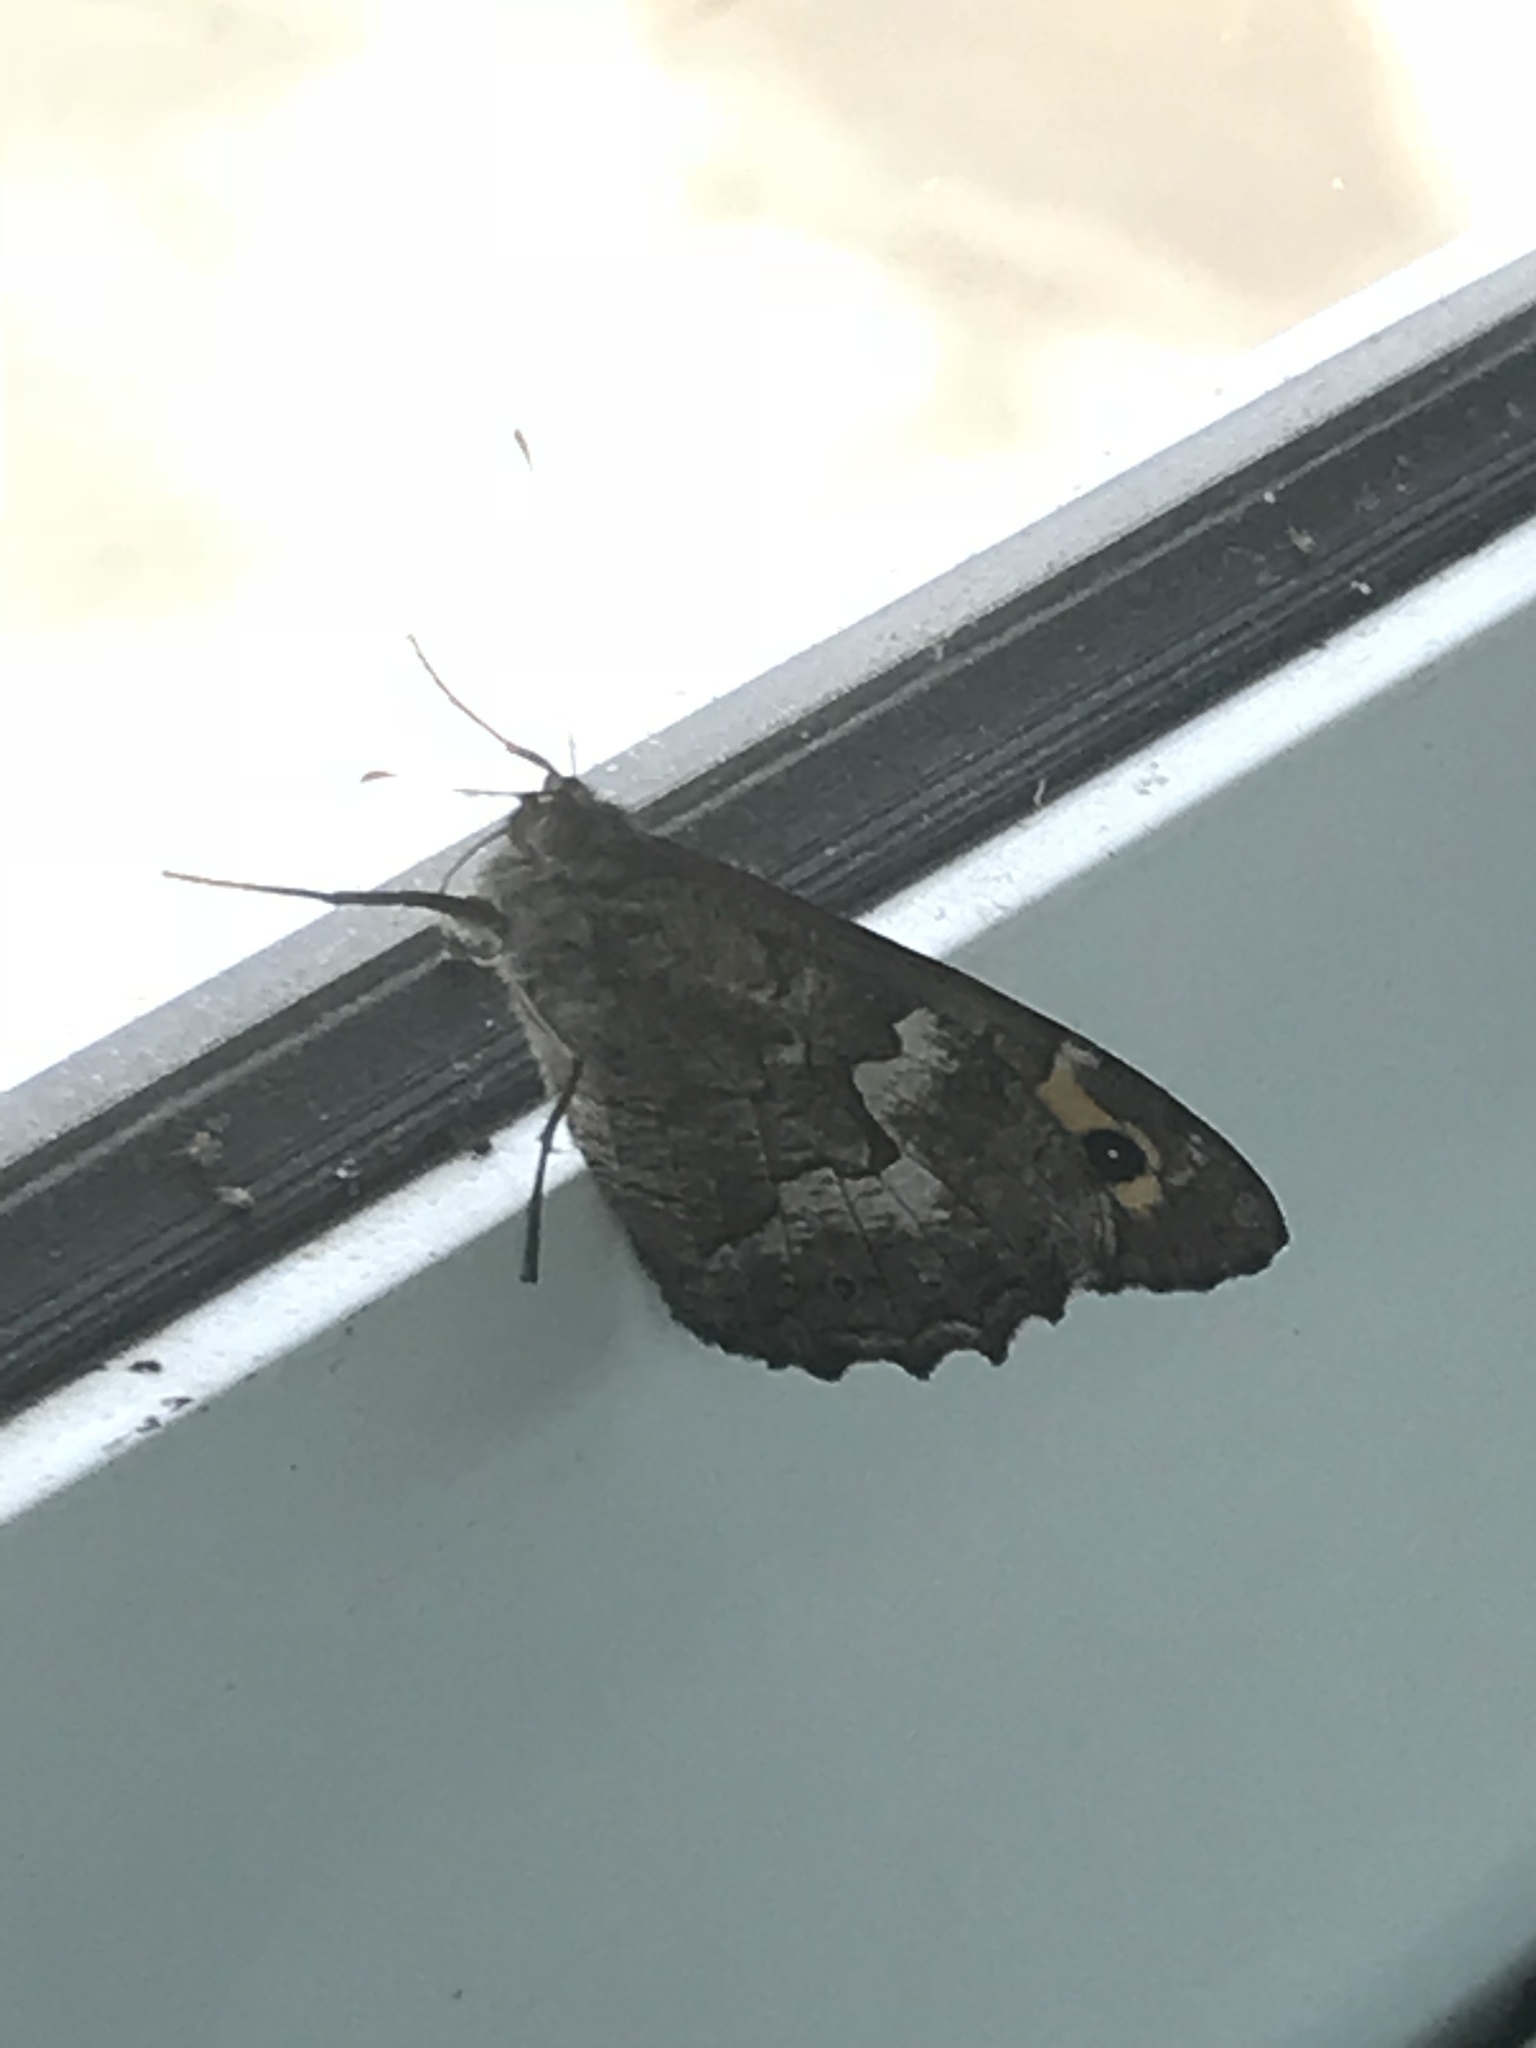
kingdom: Animalia
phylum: Arthropoda
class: Insecta
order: Lepidoptera
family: Nymphalidae
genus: Hipparchia
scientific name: Hipparchia cypriensis
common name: Cyprus grayling
